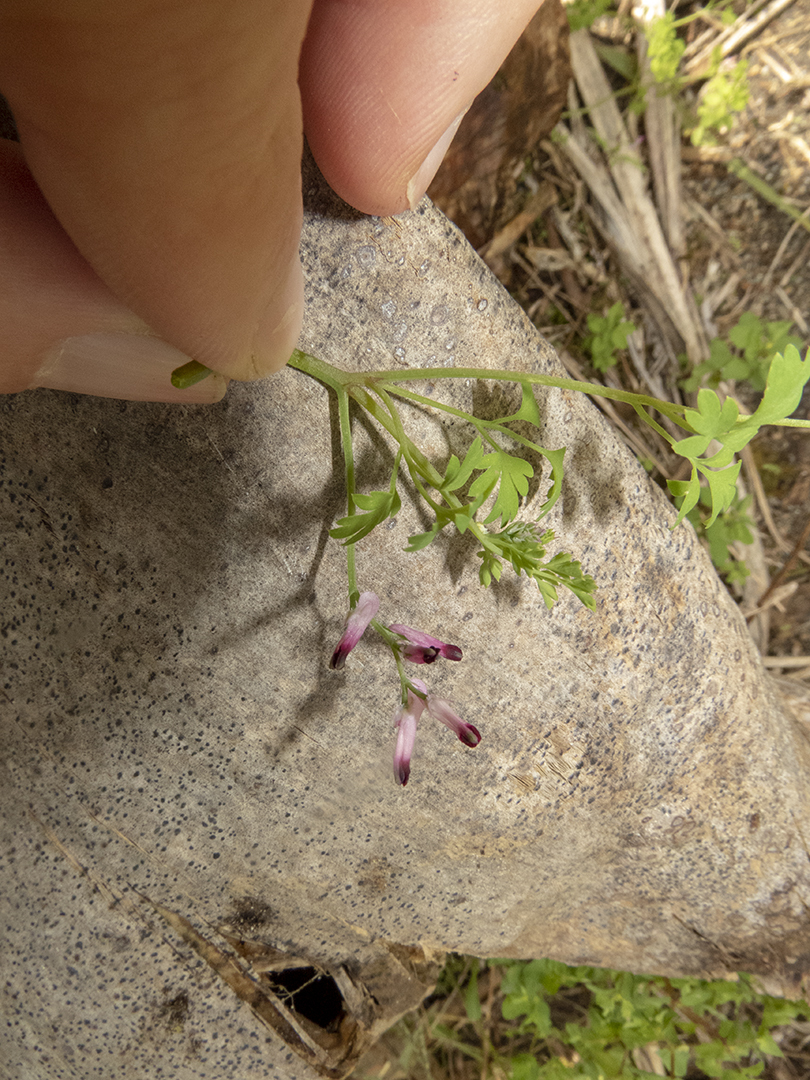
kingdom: Plantae
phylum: Tracheophyta
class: Magnoliopsida
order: Ranunculales
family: Papaveraceae
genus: Fumaria
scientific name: Fumaria muralis
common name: Common ramping-fumitory
